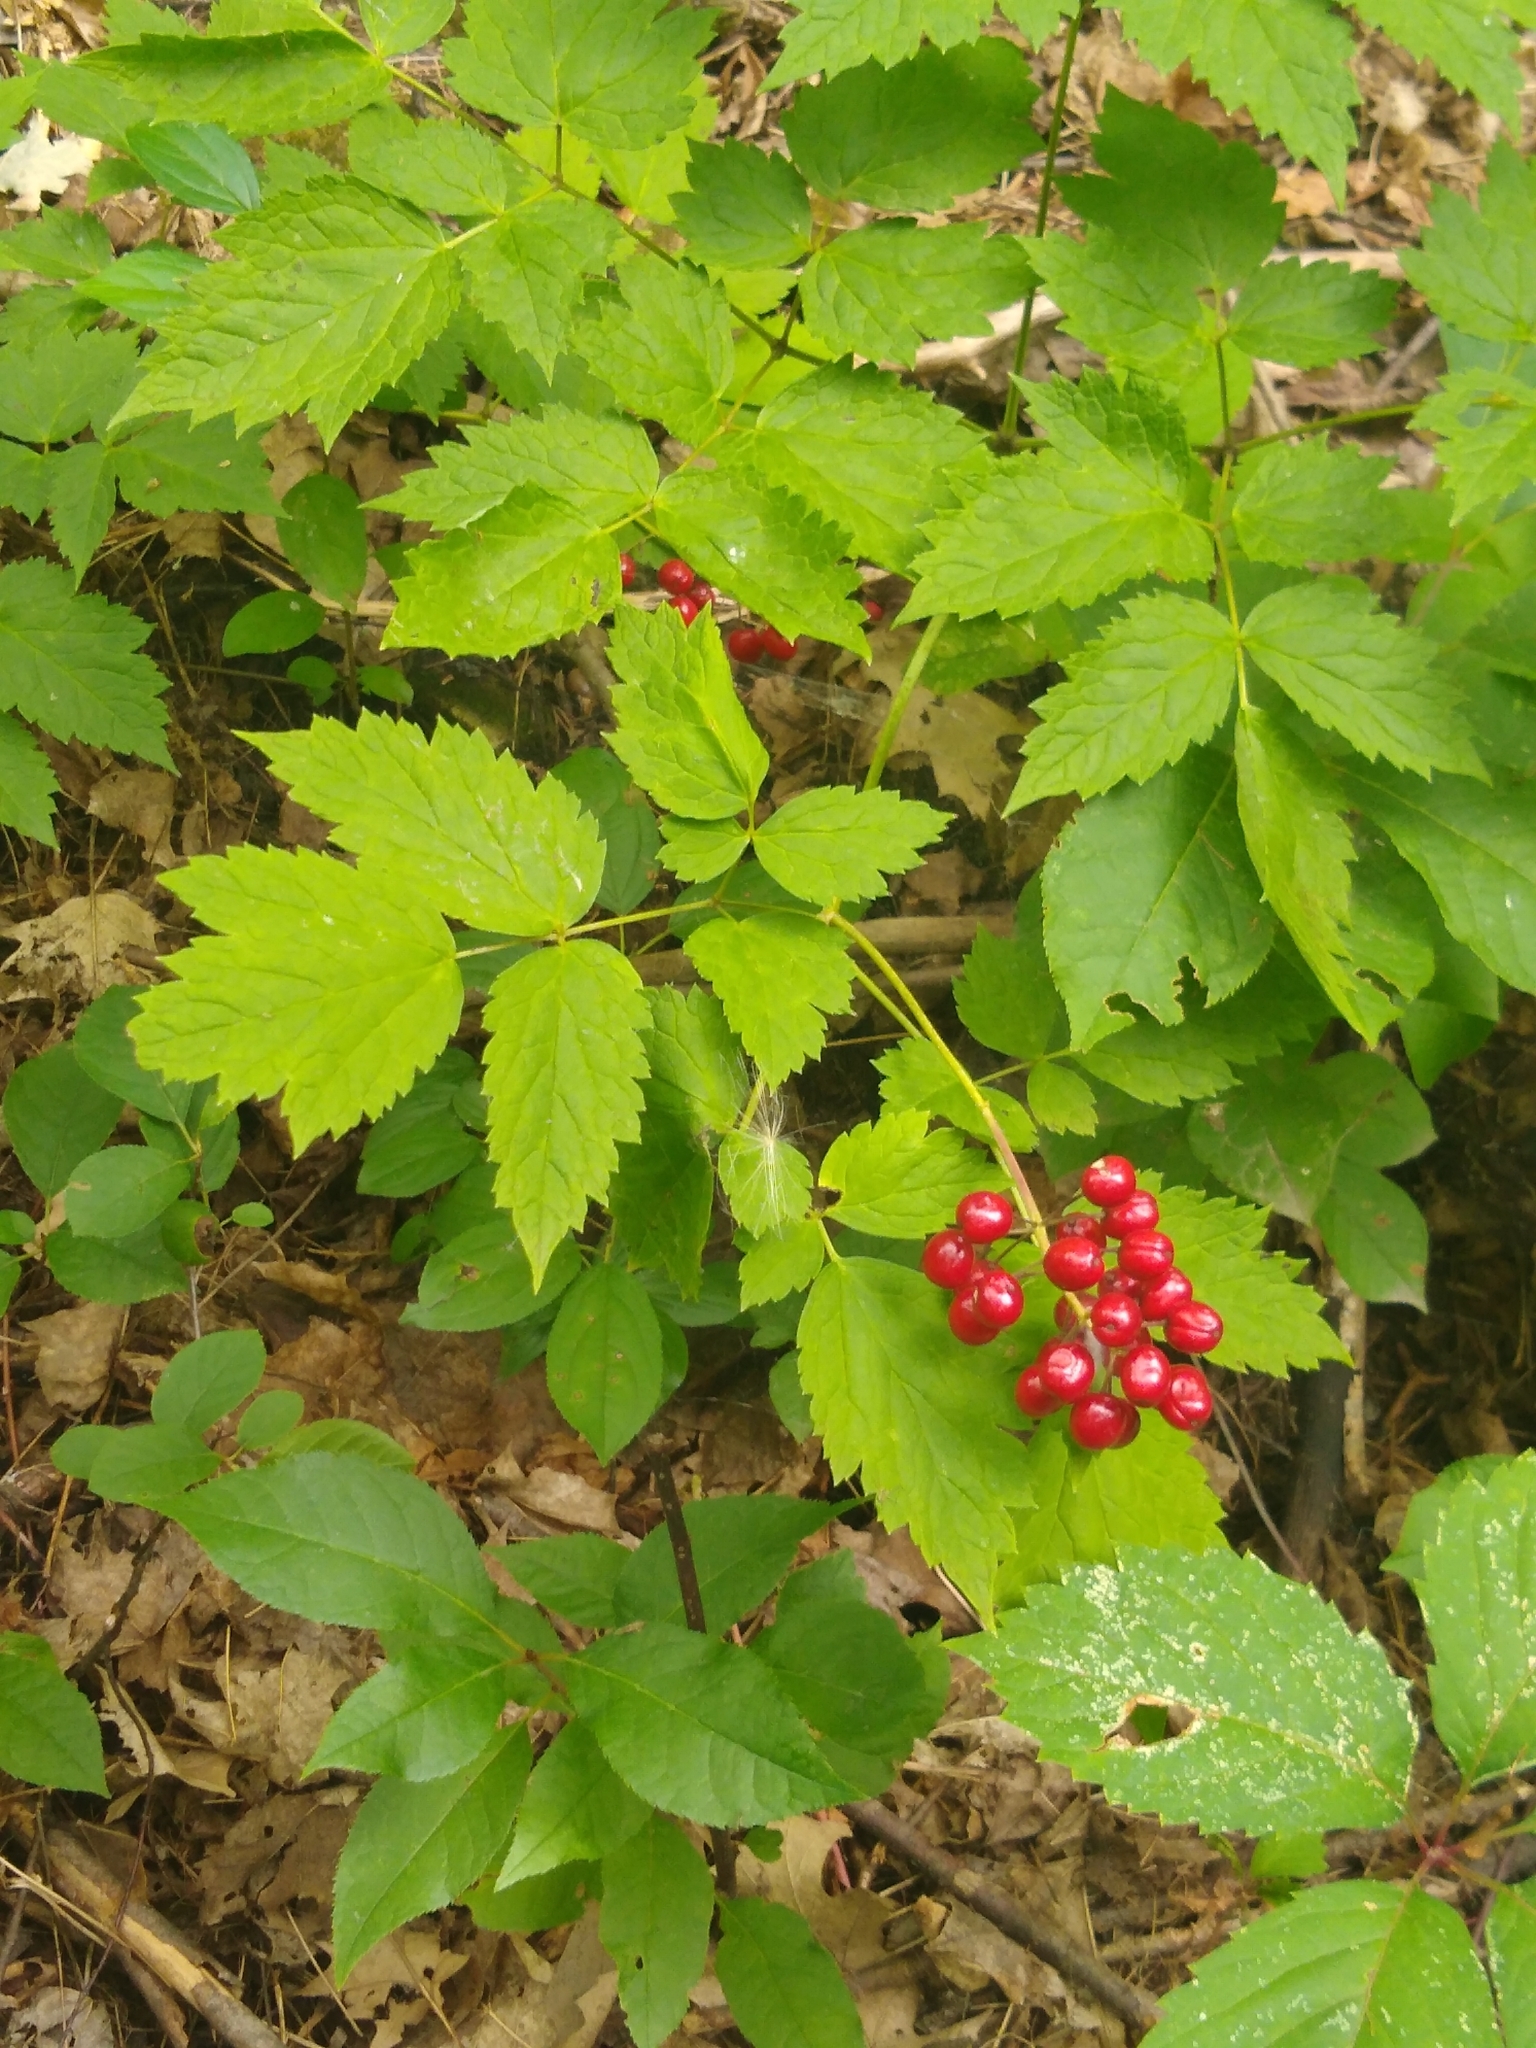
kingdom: Plantae
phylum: Tracheophyta
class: Magnoliopsida
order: Ranunculales
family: Ranunculaceae
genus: Actaea
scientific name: Actaea rubra
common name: Red baneberry
